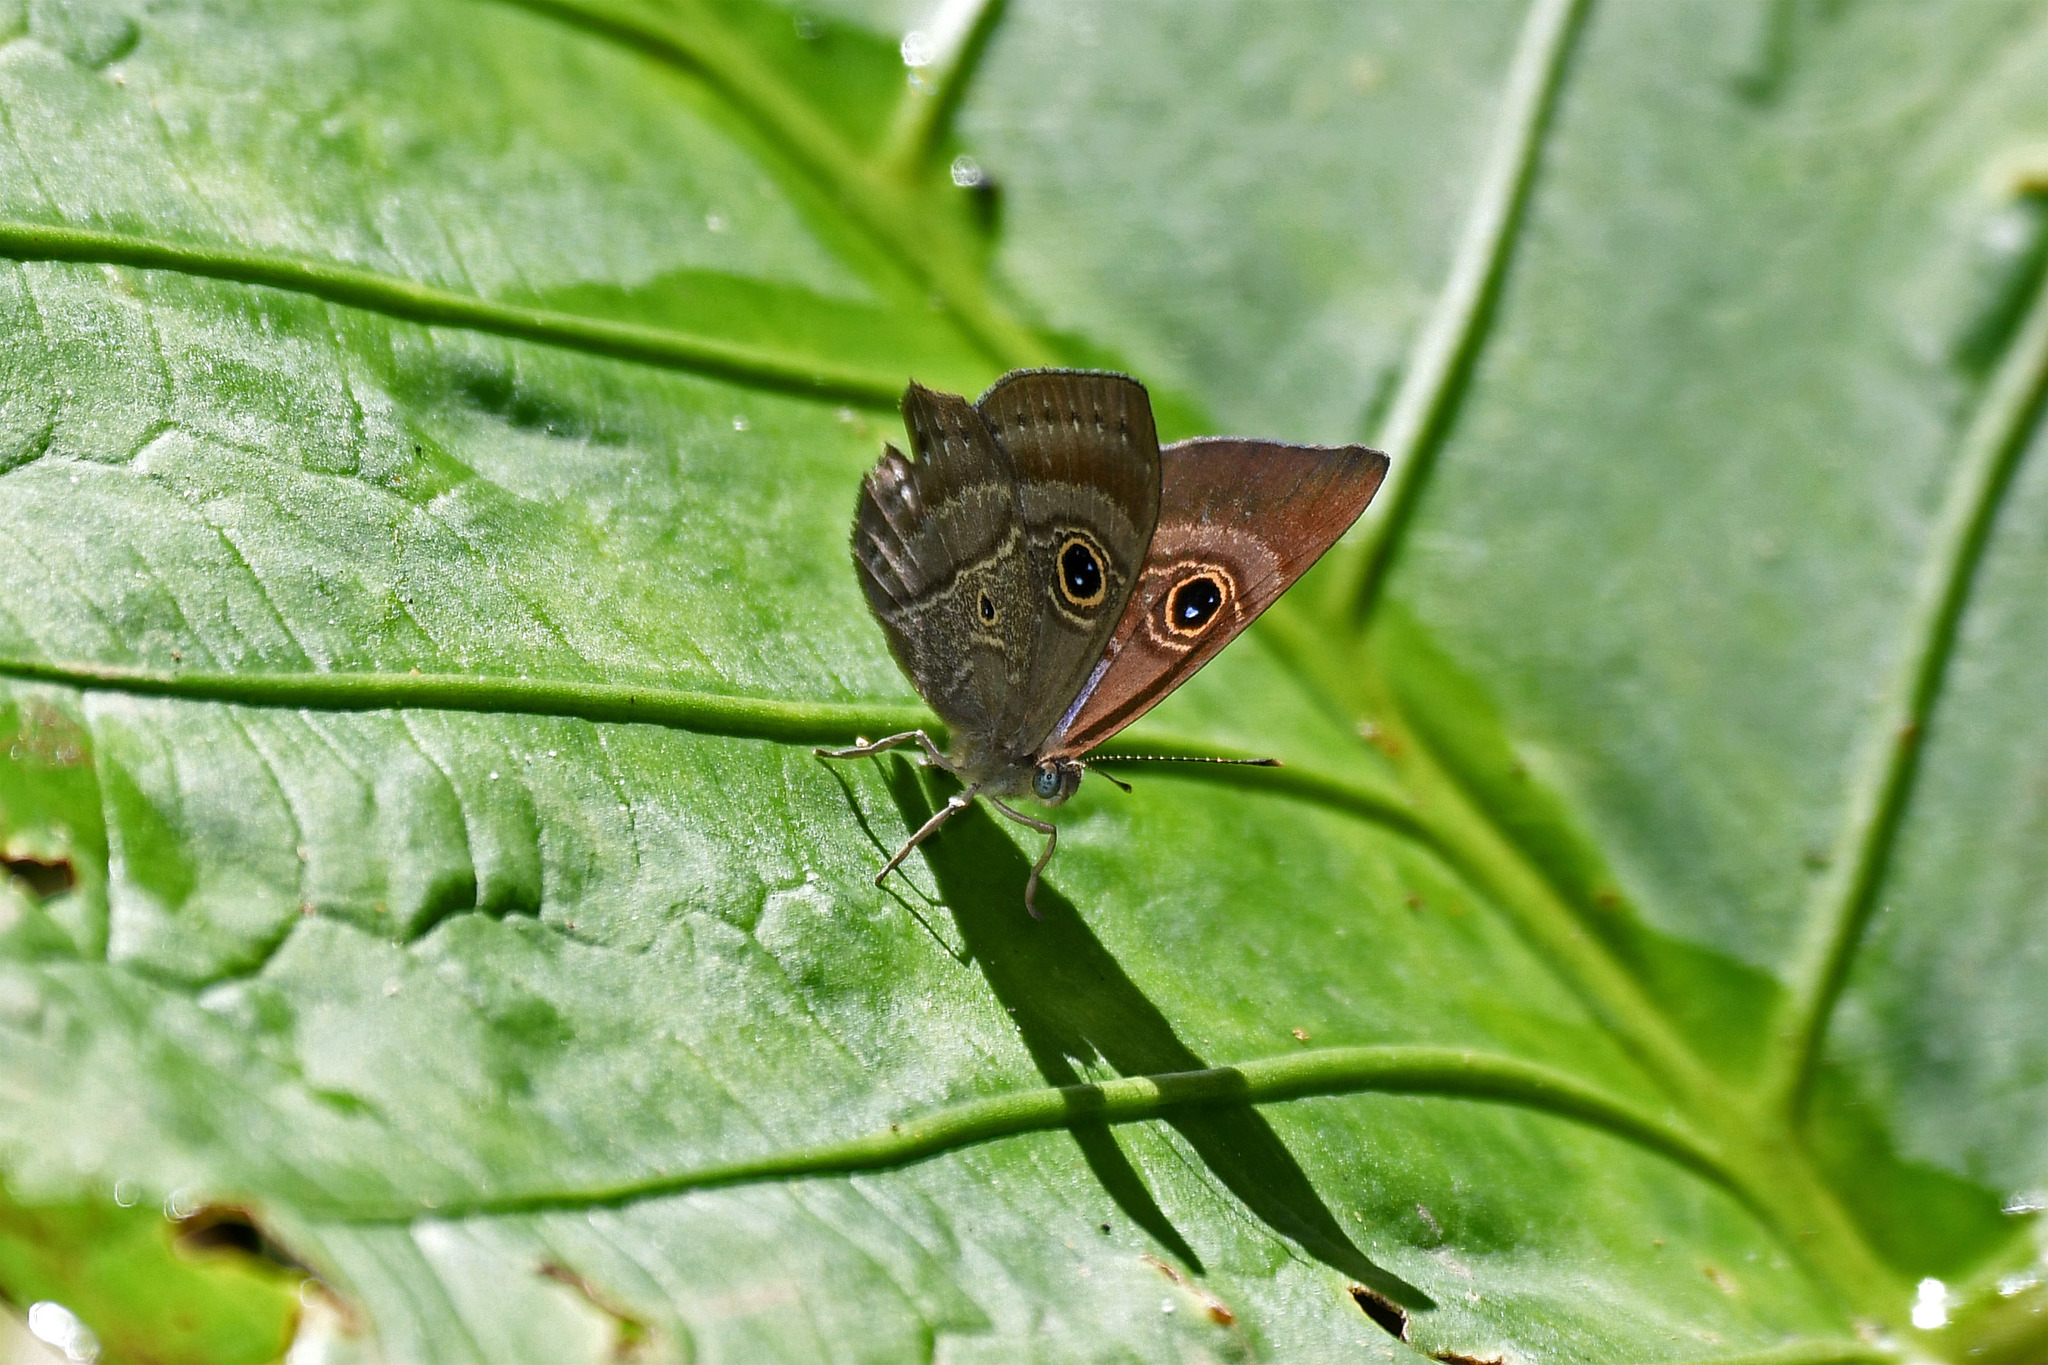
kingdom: Animalia
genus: Mesosemia
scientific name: Mesosemia lamachus
